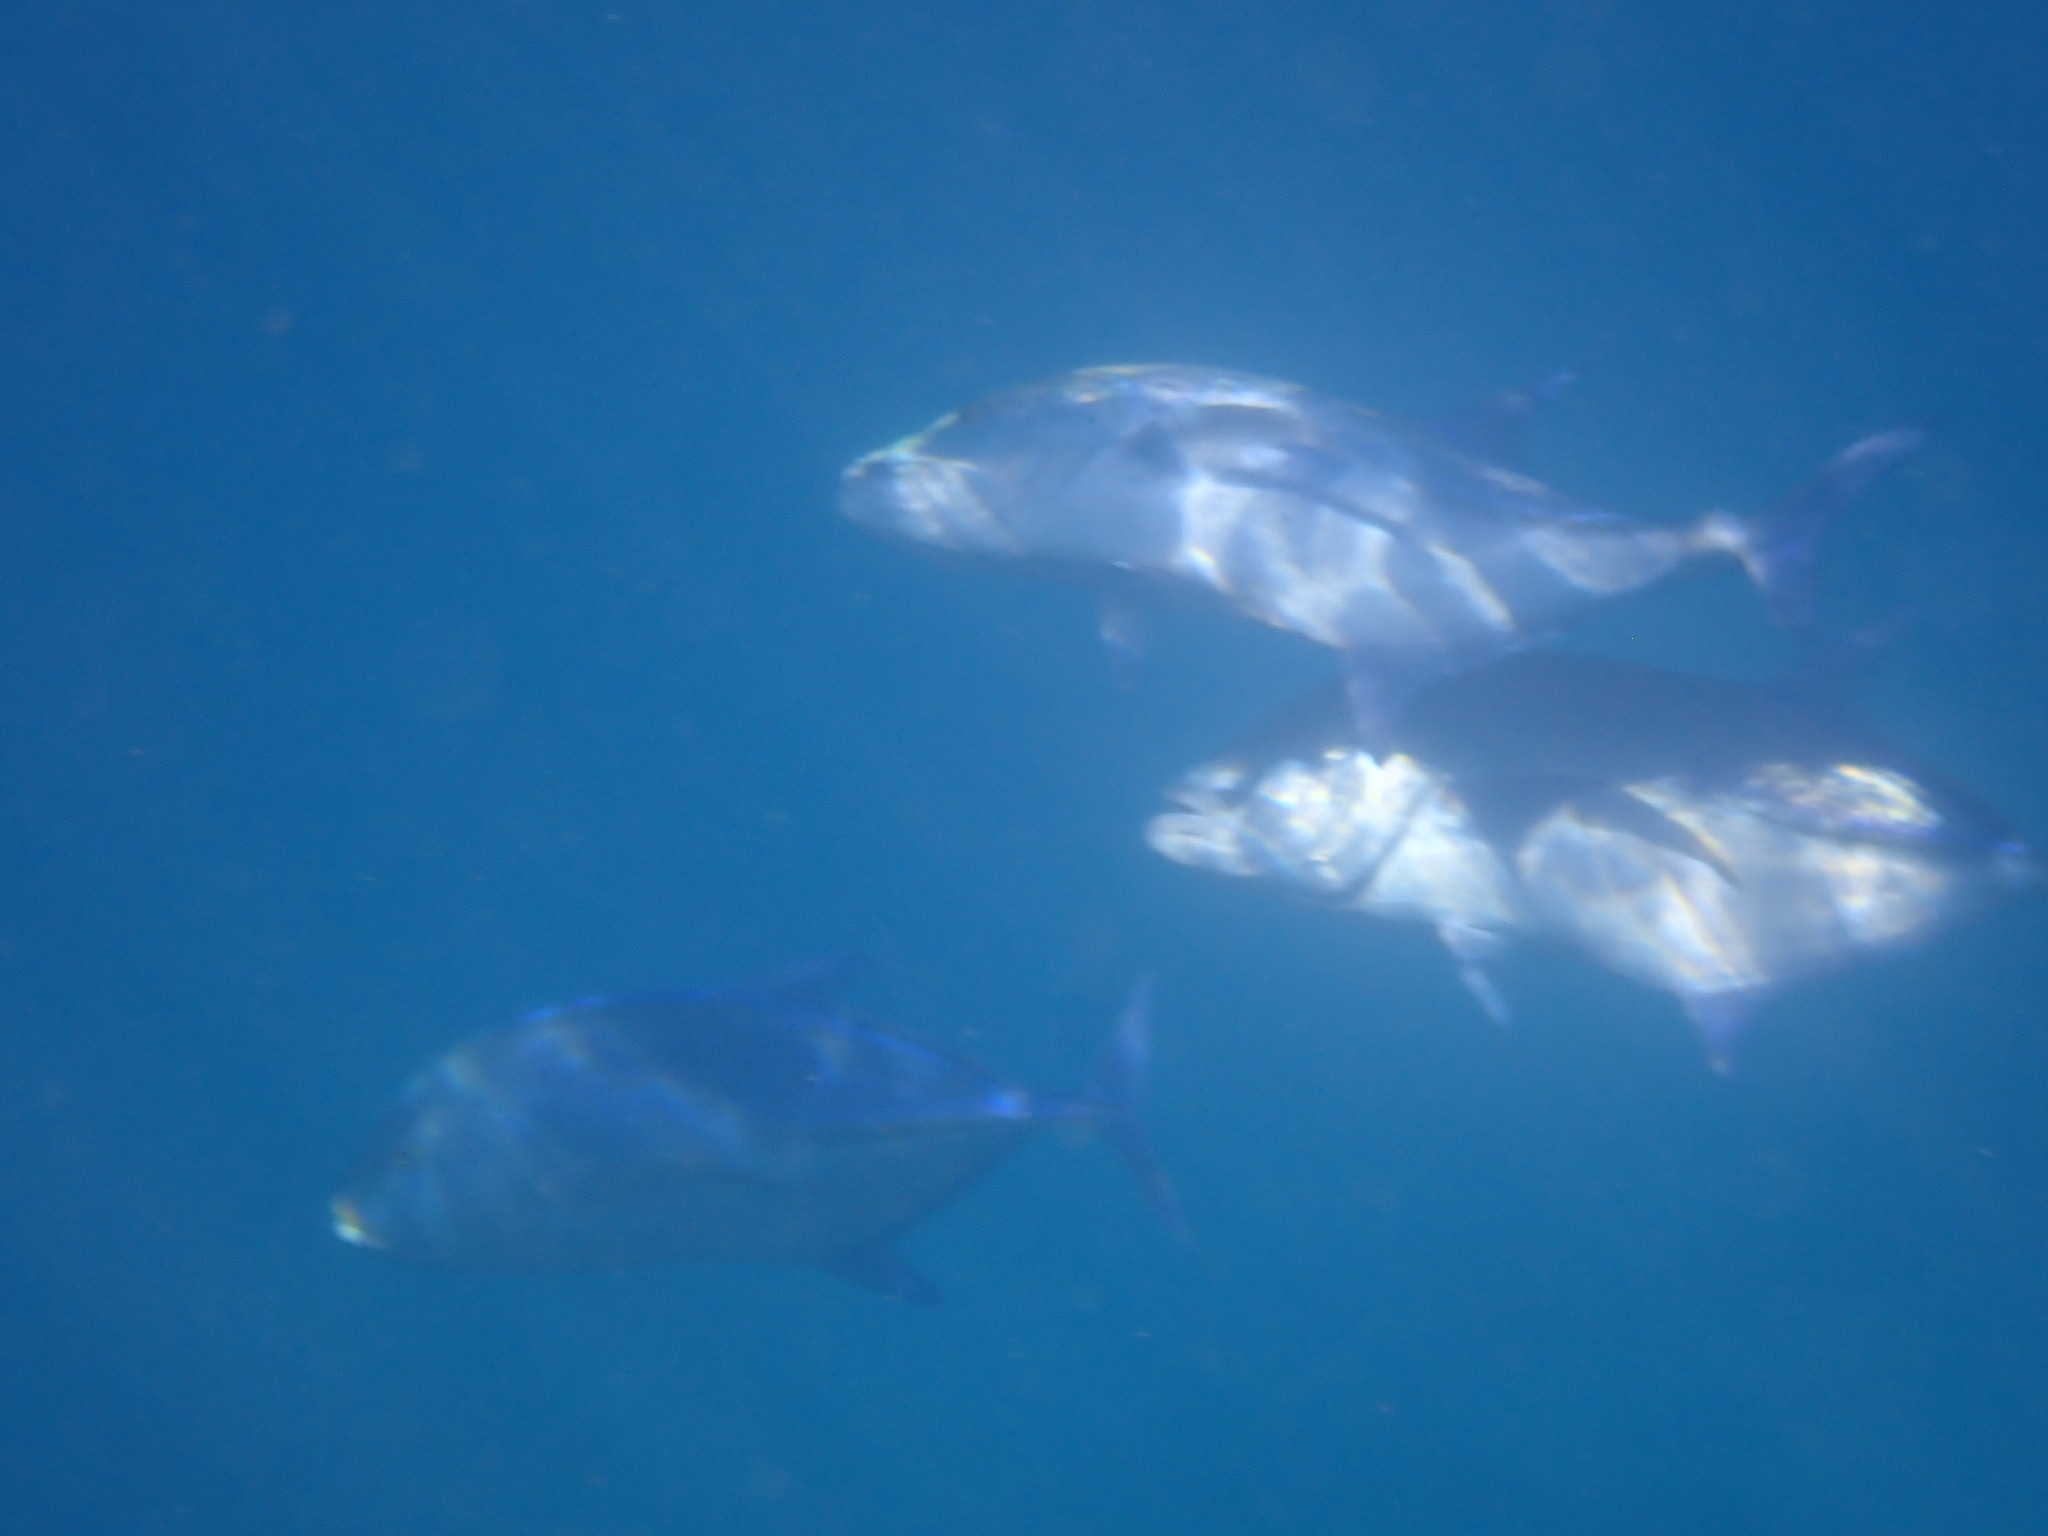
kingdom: Animalia
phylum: Chordata
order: Perciformes
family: Carangidae
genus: Caranx
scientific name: Caranx melampygus
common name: Bluefin trevally
